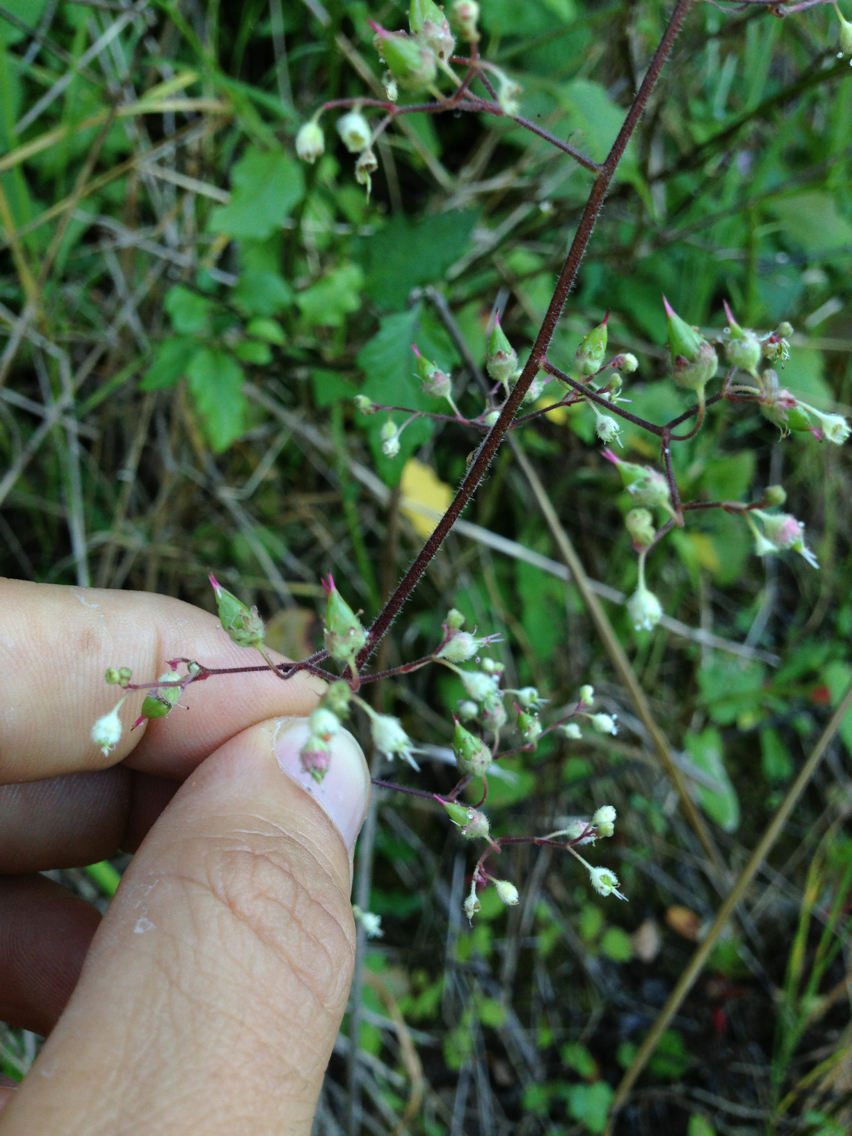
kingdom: Plantae
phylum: Tracheophyta
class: Magnoliopsida
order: Saxifragales
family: Saxifragaceae
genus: Heuchera
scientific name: Heuchera micrantha
